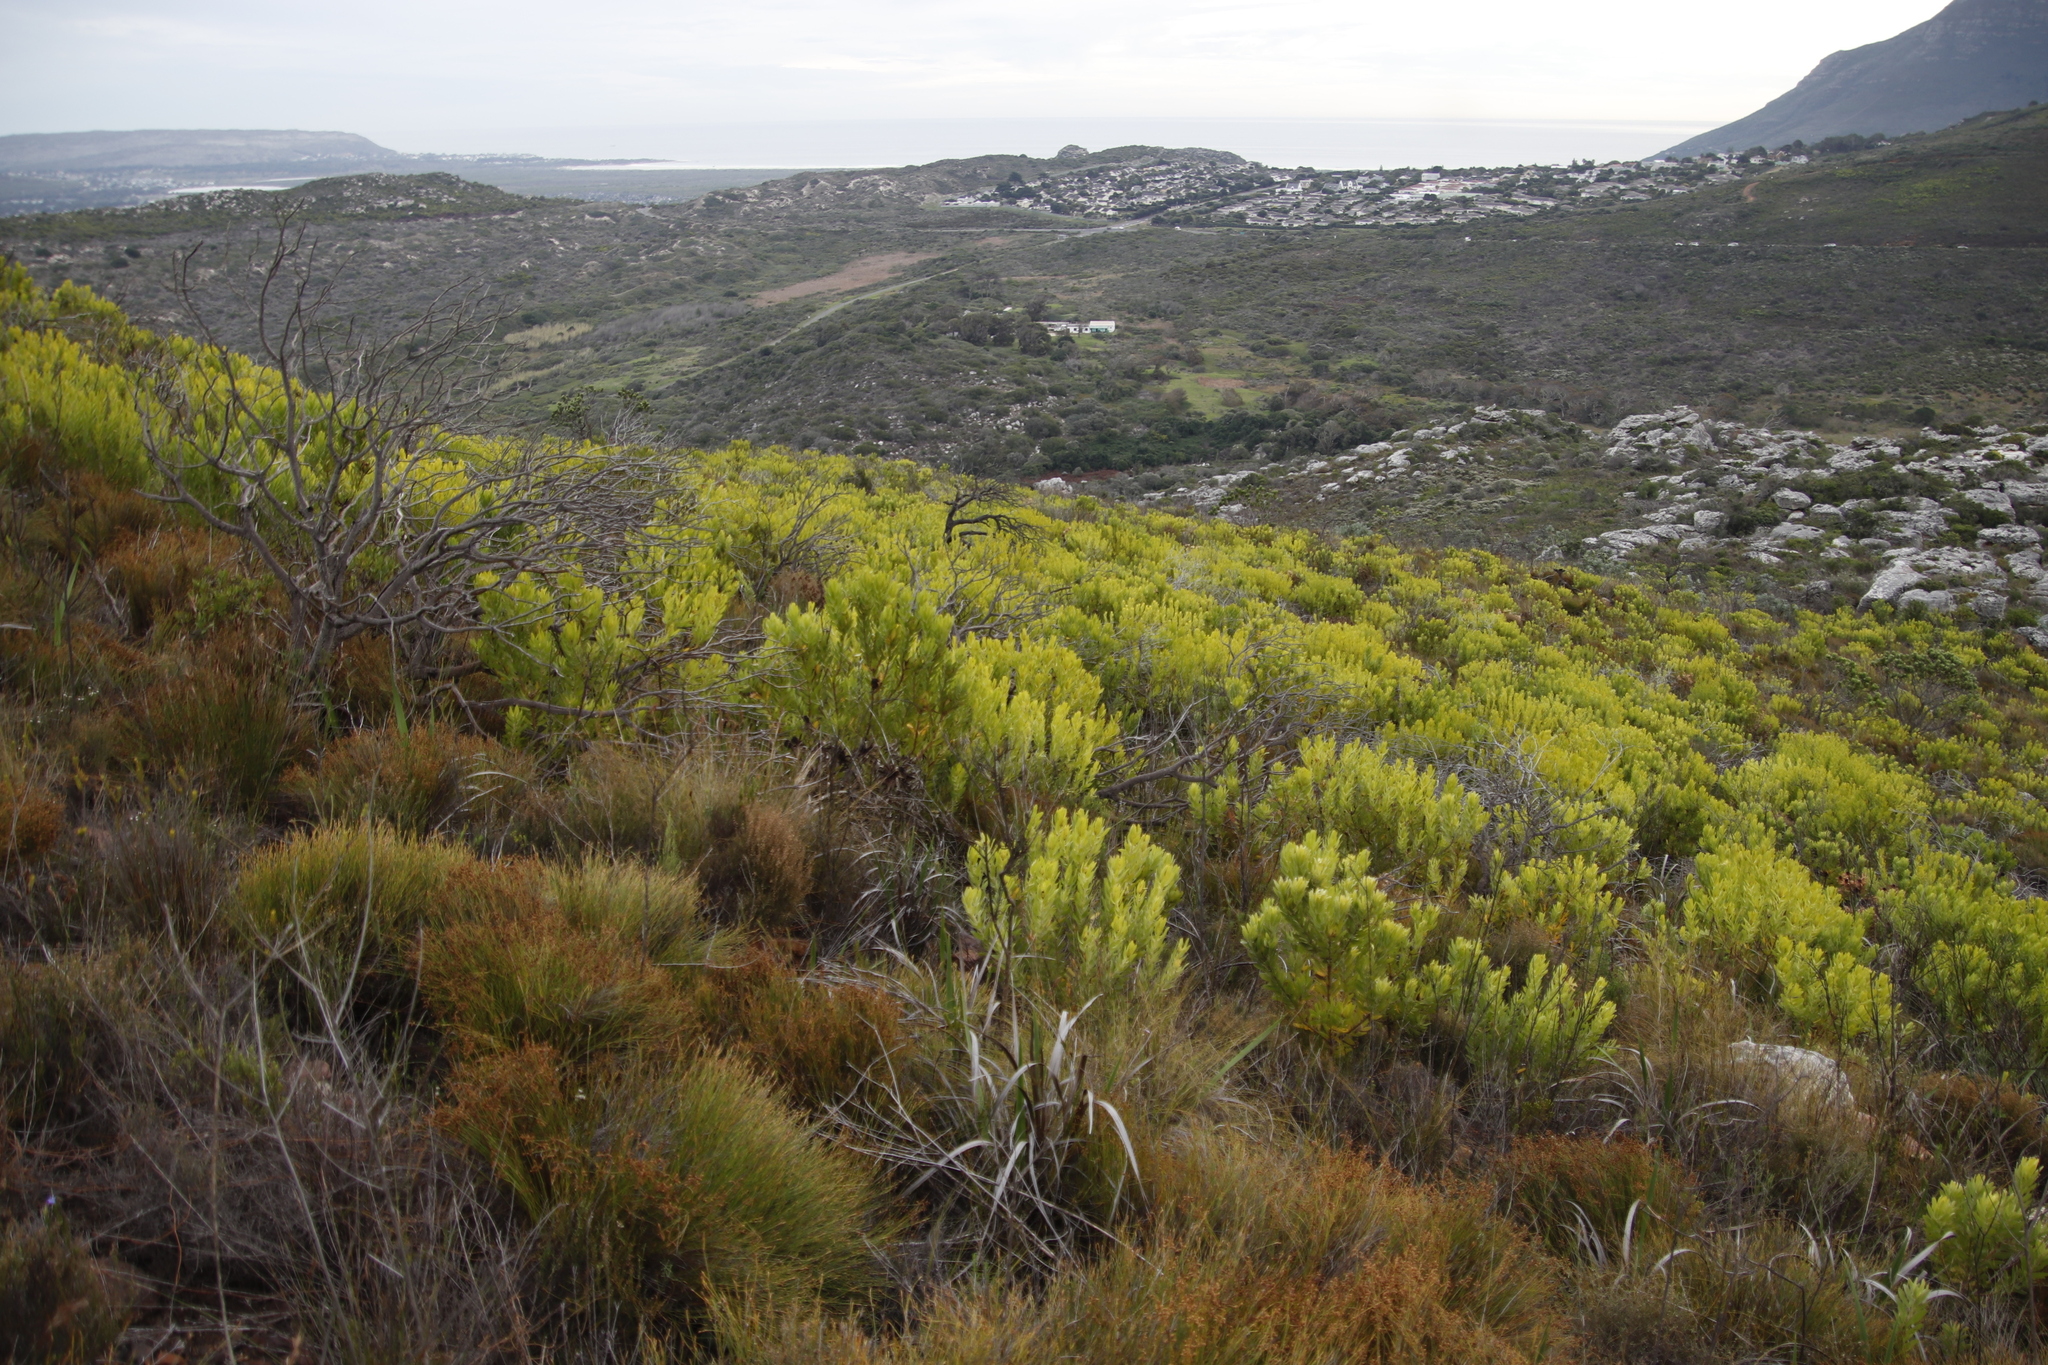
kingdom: Plantae
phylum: Tracheophyta
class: Magnoliopsida
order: Proteales
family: Proteaceae
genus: Leucadendron
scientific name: Leucadendron laureolum
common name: Golden sunshinebush
